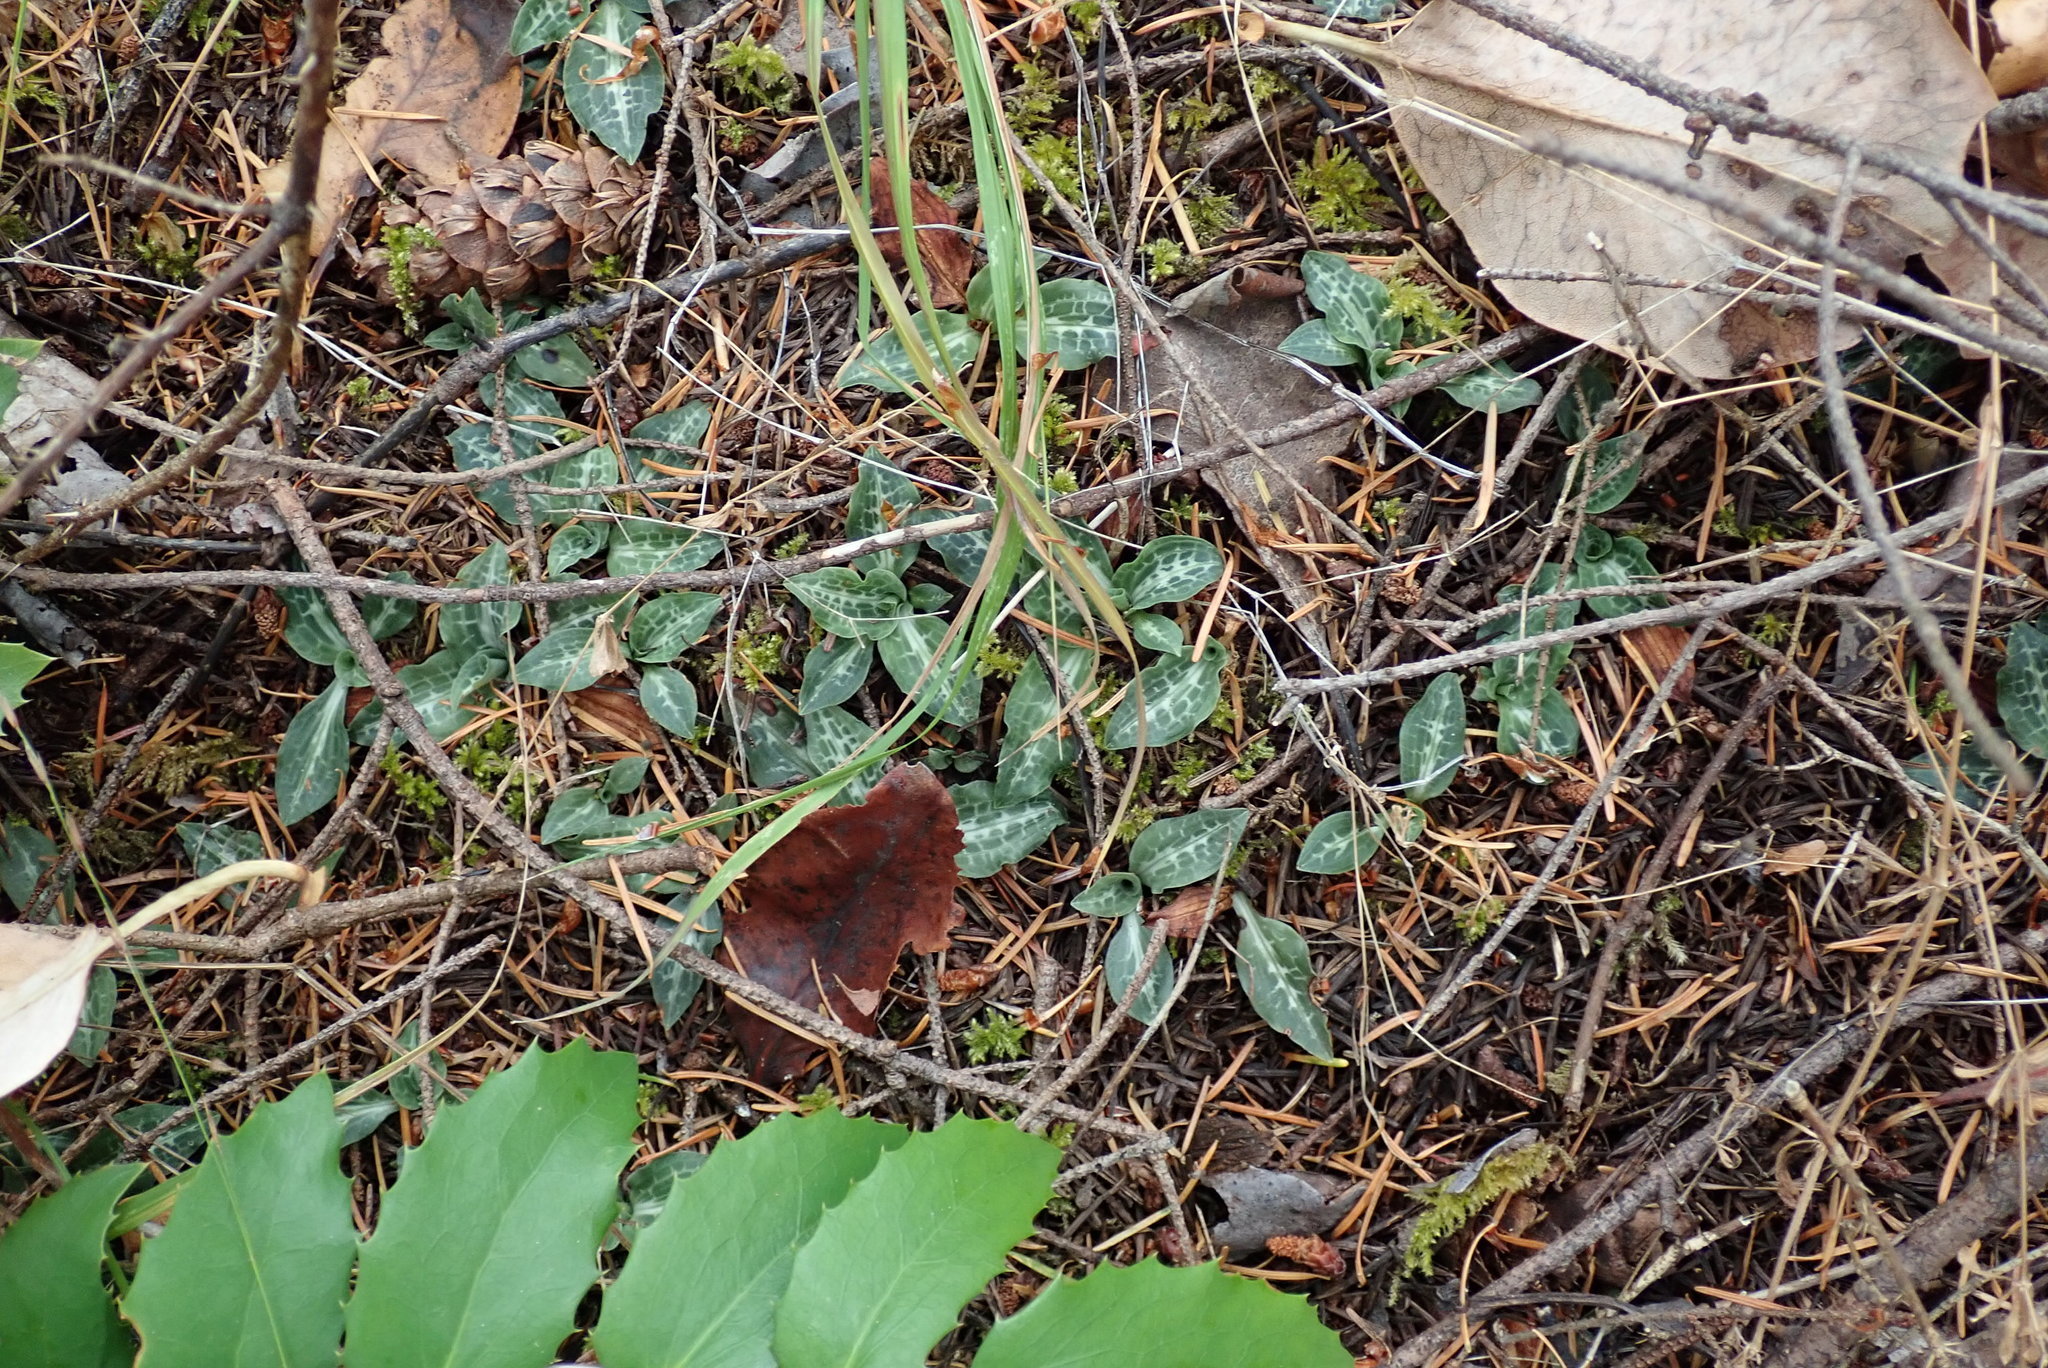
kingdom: Plantae
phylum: Tracheophyta
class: Liliopsida
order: Asparagales
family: Orchidaceae
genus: Goodyera
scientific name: Goodyera oblongifolia
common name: Giant rattlesnake-plantain
